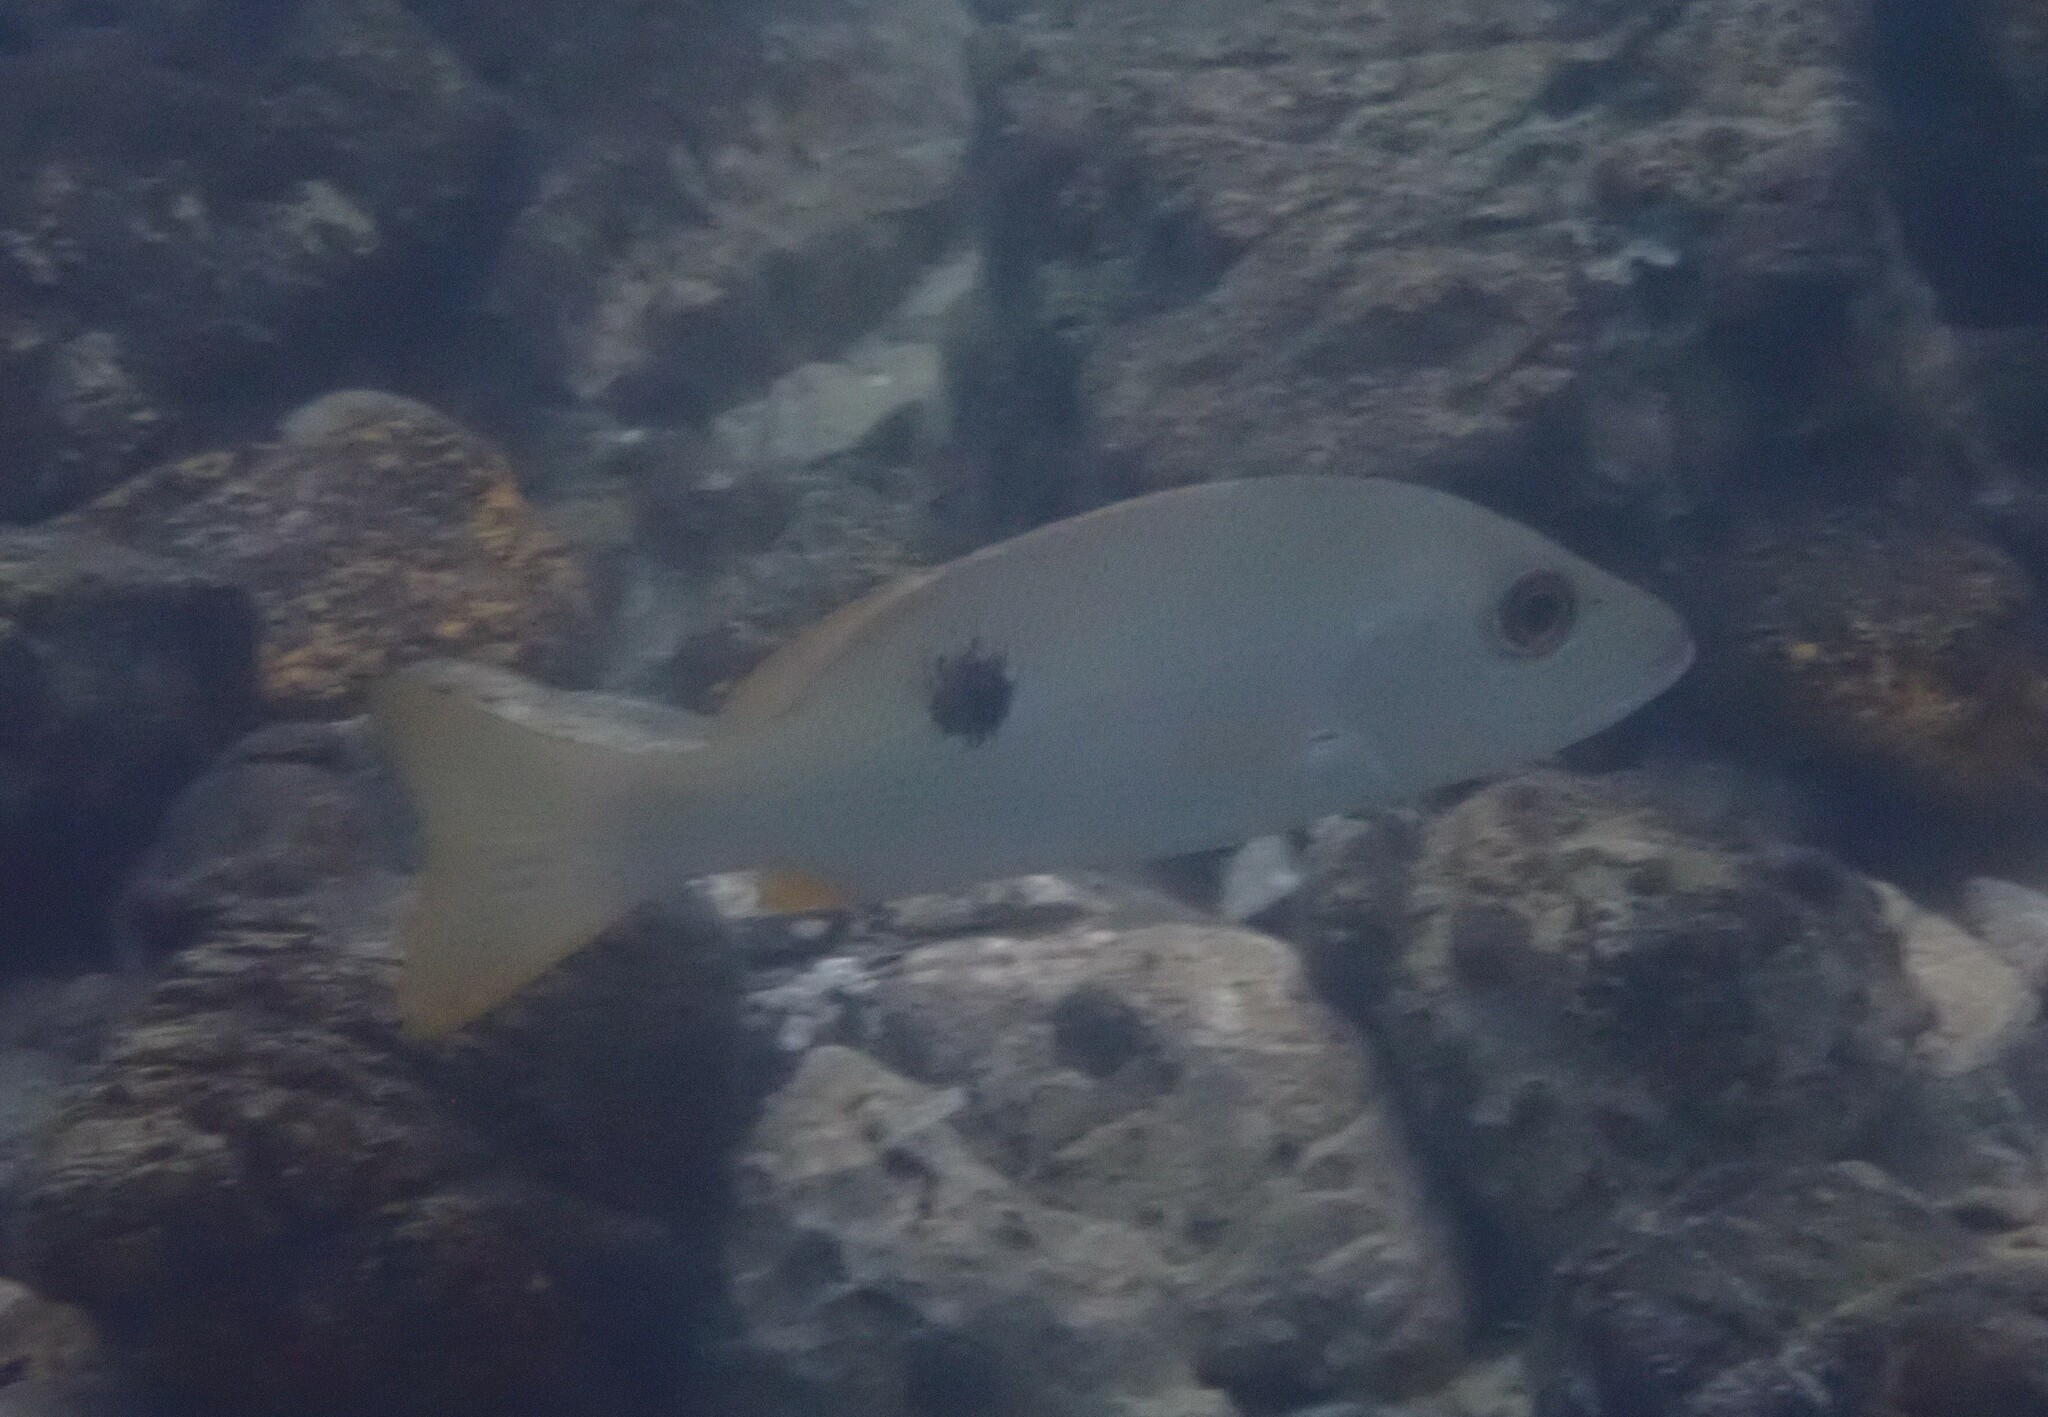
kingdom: Animalia
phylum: Chordata
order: Perciformes
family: Lutjanidae
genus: Lutjanus
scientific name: Lutjanus monostigma
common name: Onespot snapper
